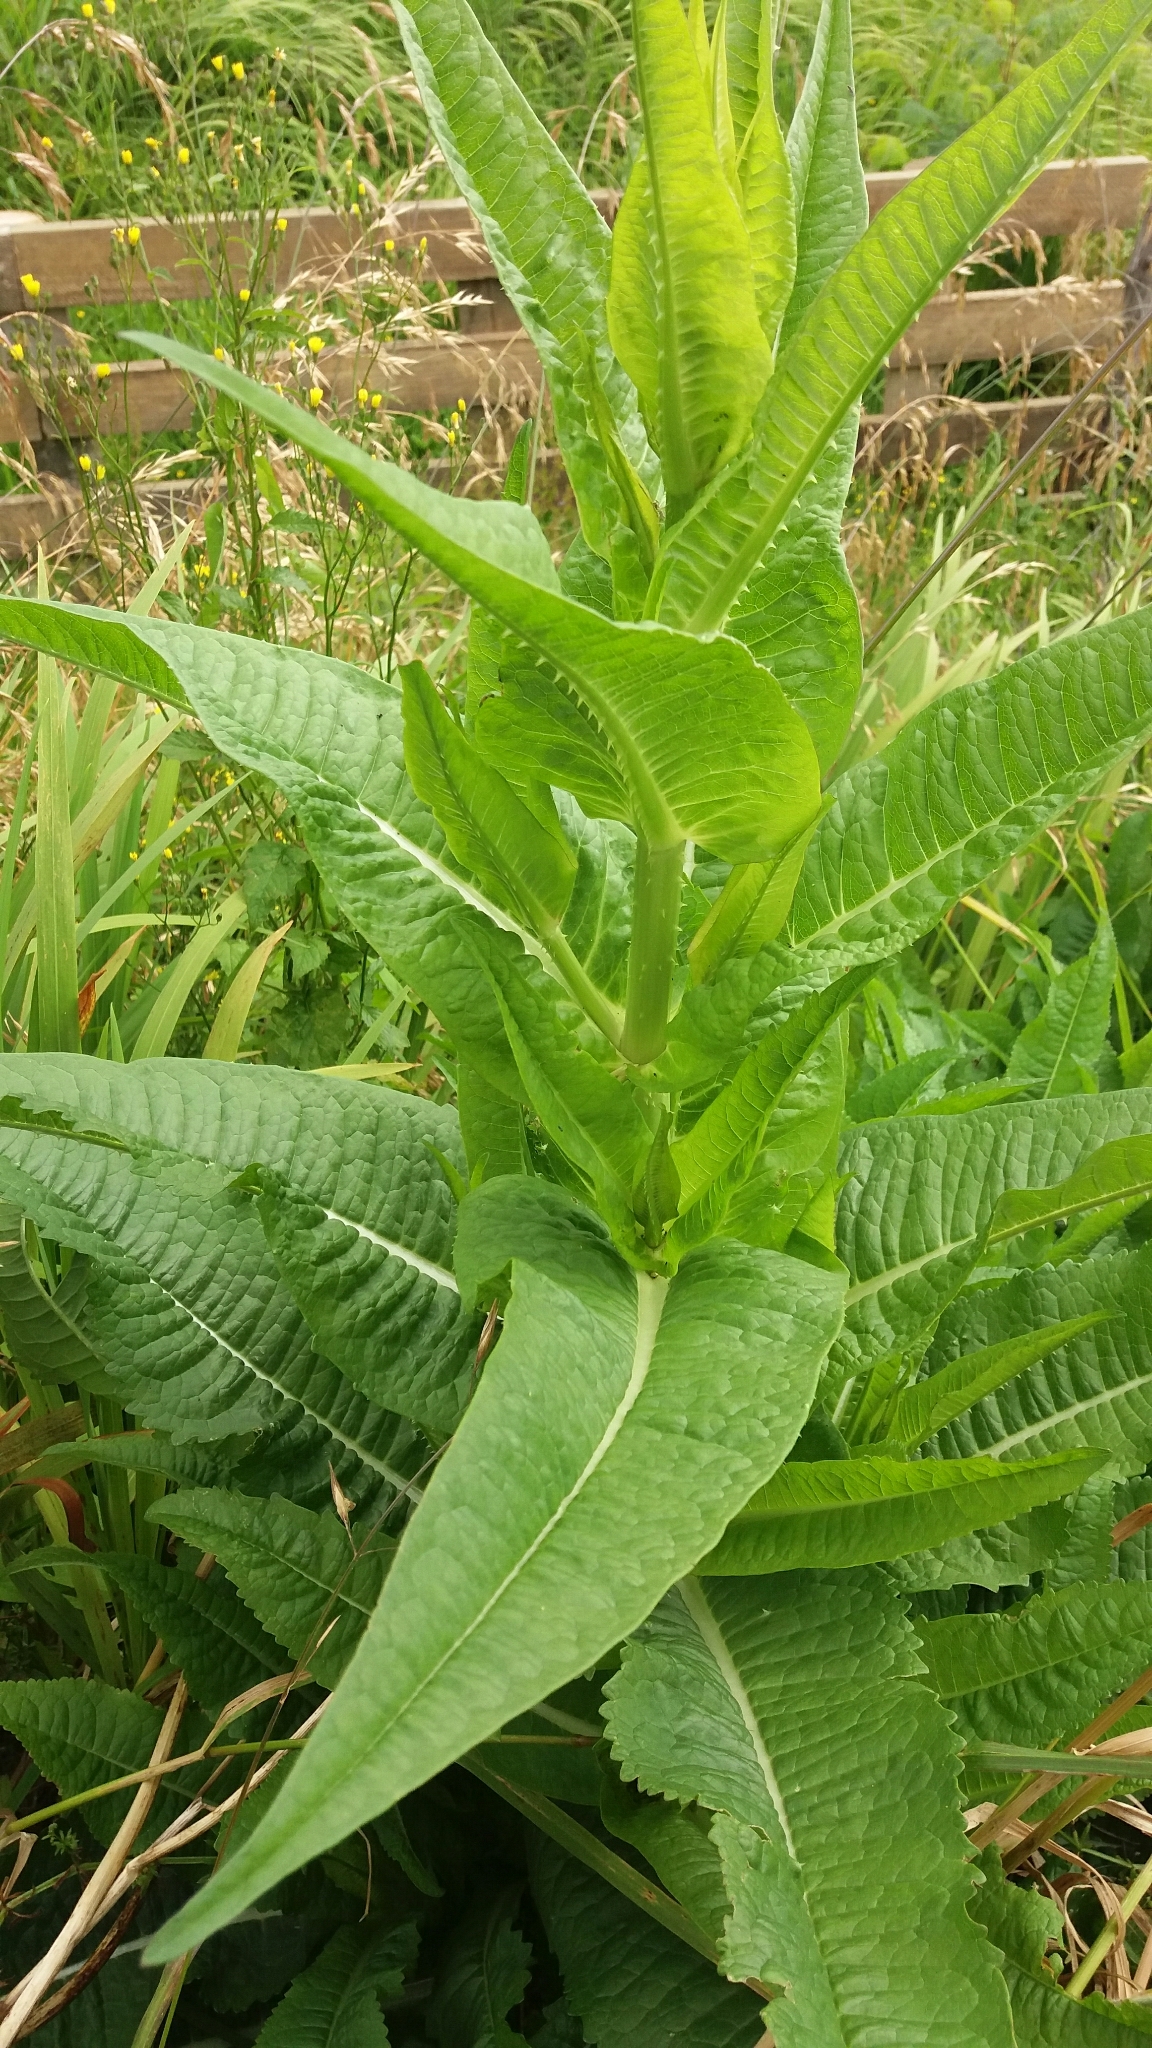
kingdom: Plantae
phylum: Tracheophyta
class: Magnoliopsida
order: Dipsacales
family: Caprifoliaceae
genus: Dipsacus
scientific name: Dipsacus fullonum
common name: Teasel
